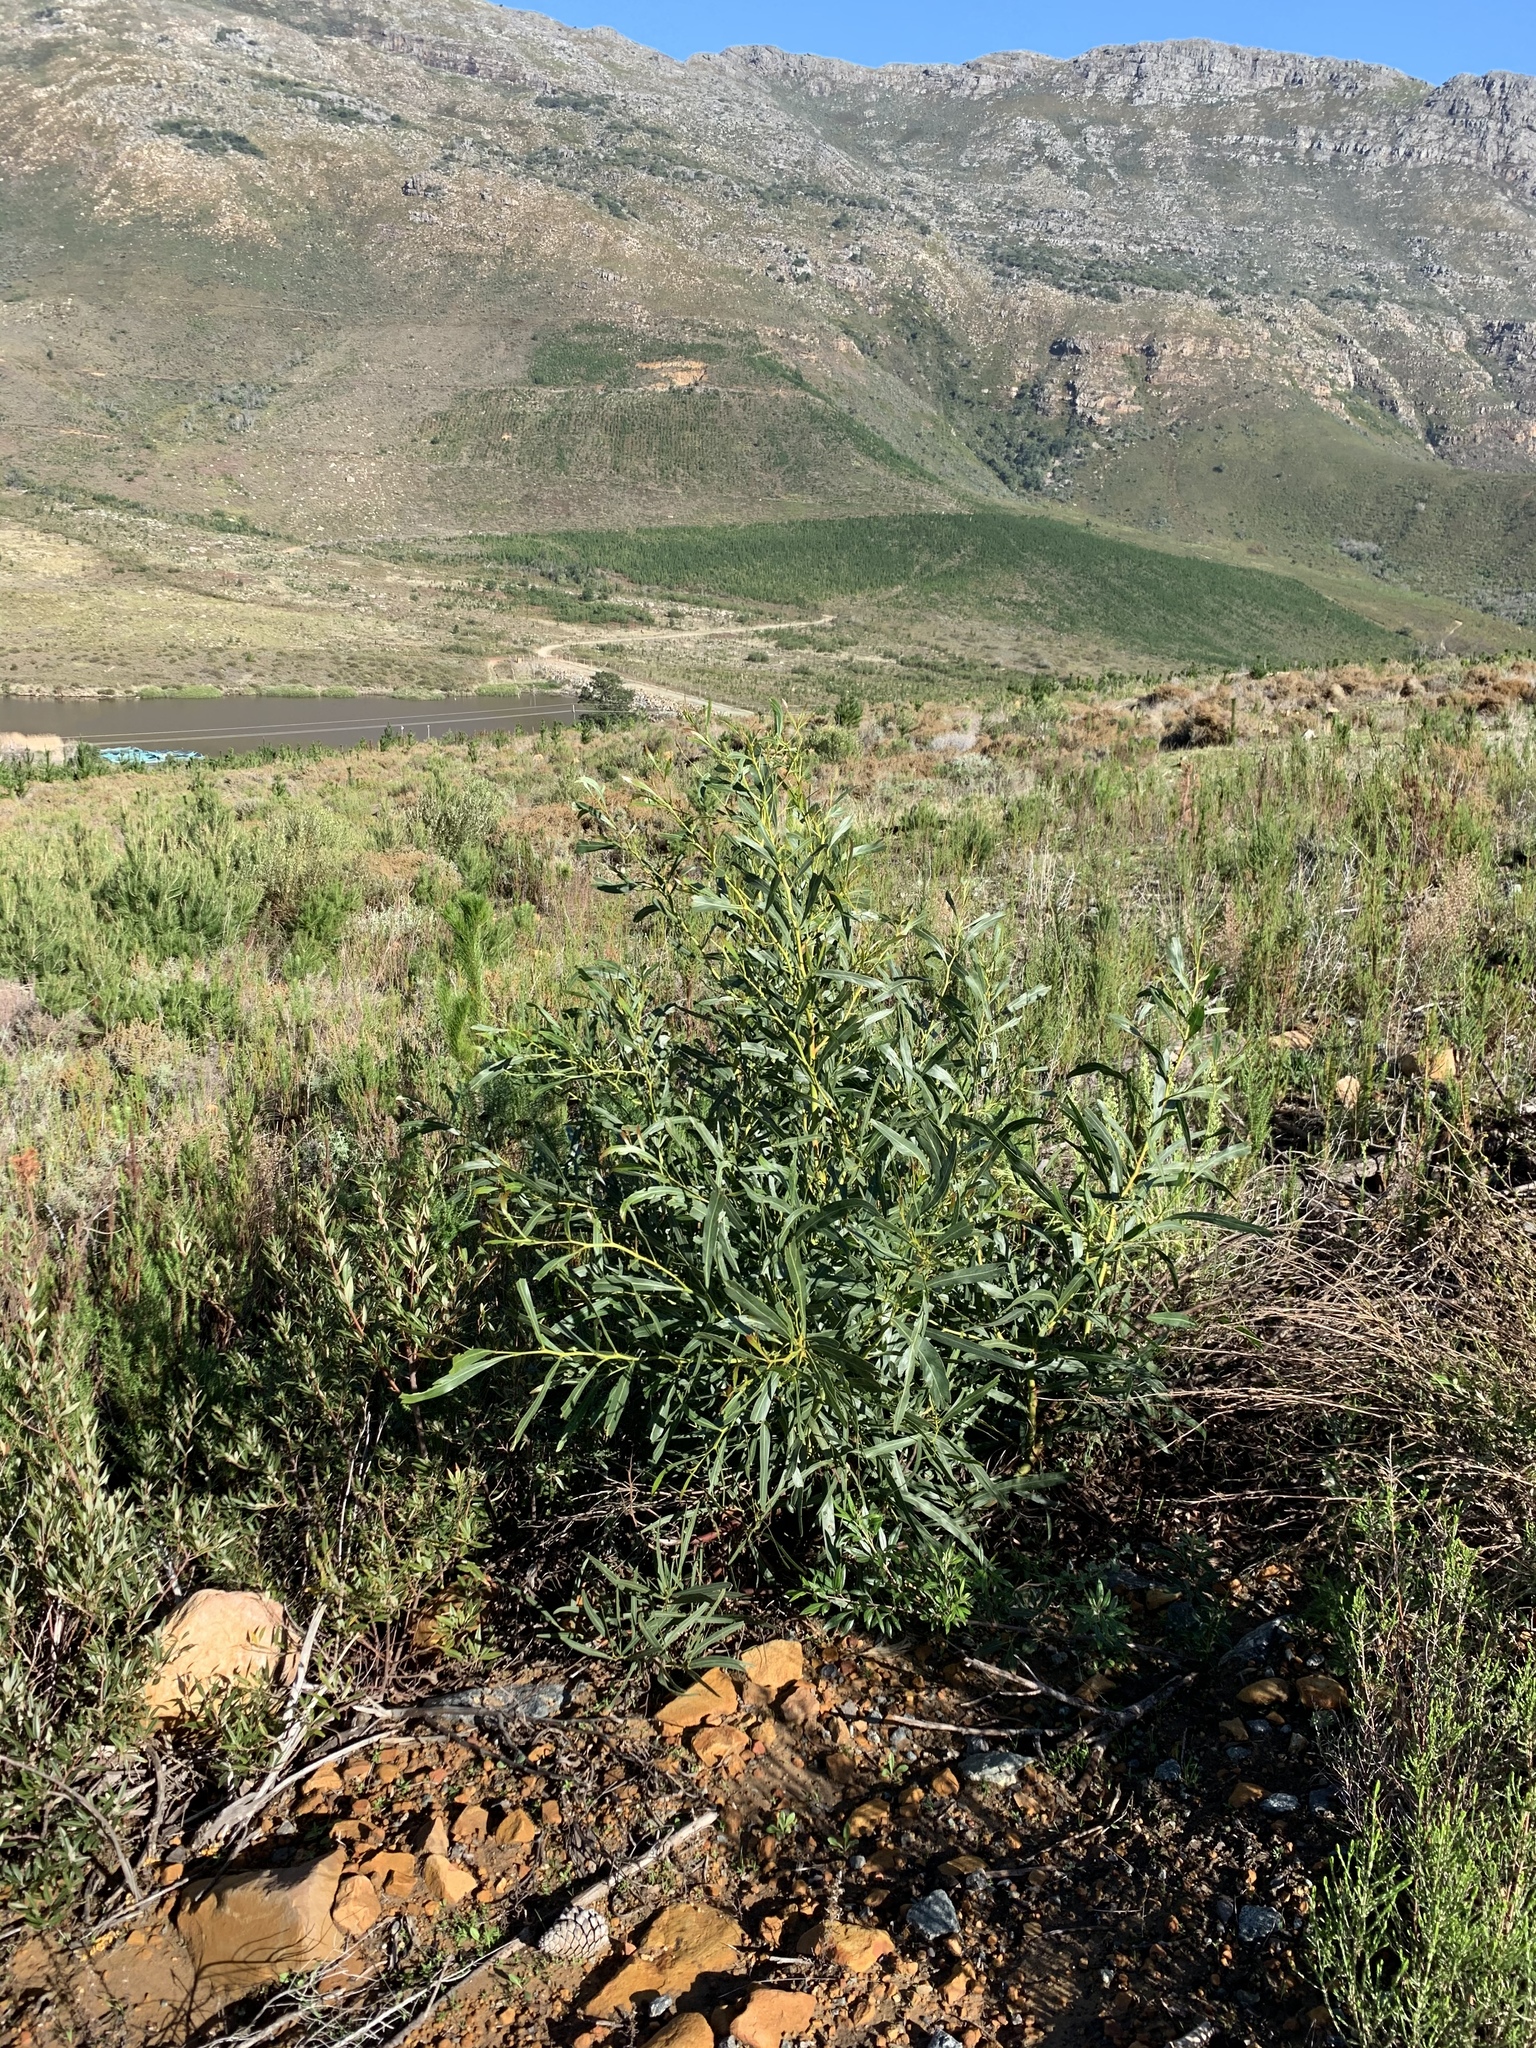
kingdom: Plantae
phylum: Tracheophyta
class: Magnoliopsida
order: Fabales
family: Fabaceae
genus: Acacia
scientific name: Acacia saligna
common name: Orange wattle
